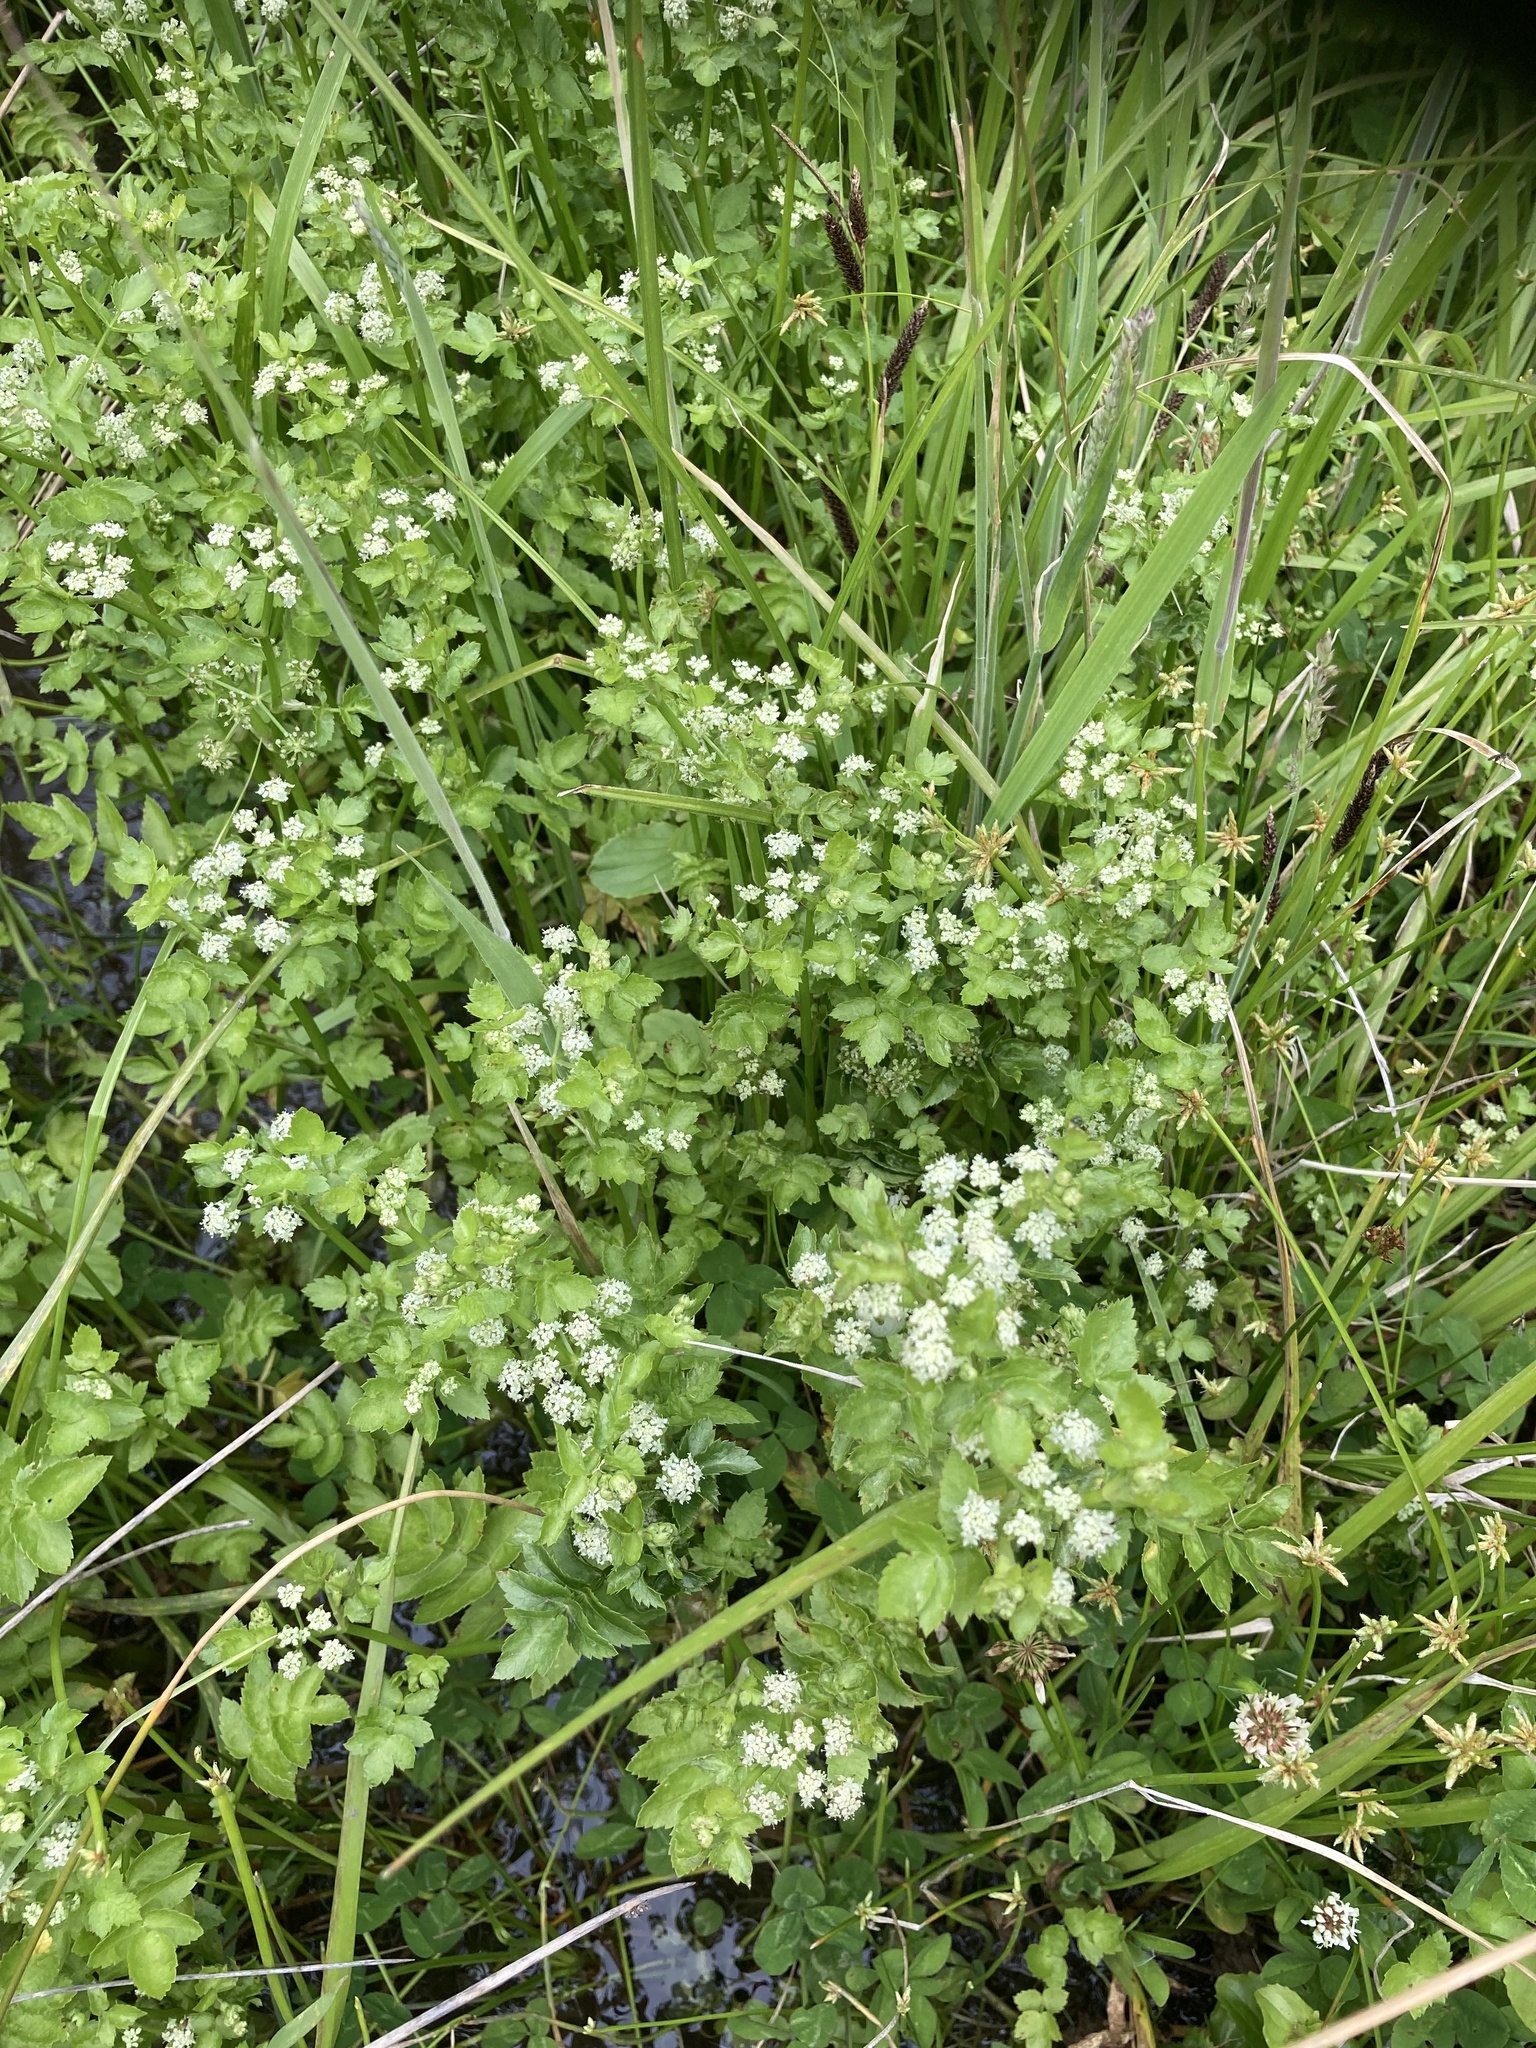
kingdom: Plantae
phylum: Tracheophyta
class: Magnoliopsida
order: Apiales
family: Apiaceae
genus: Helosciadium
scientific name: Helosciadium nodiflorum
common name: Fool's-watercress
